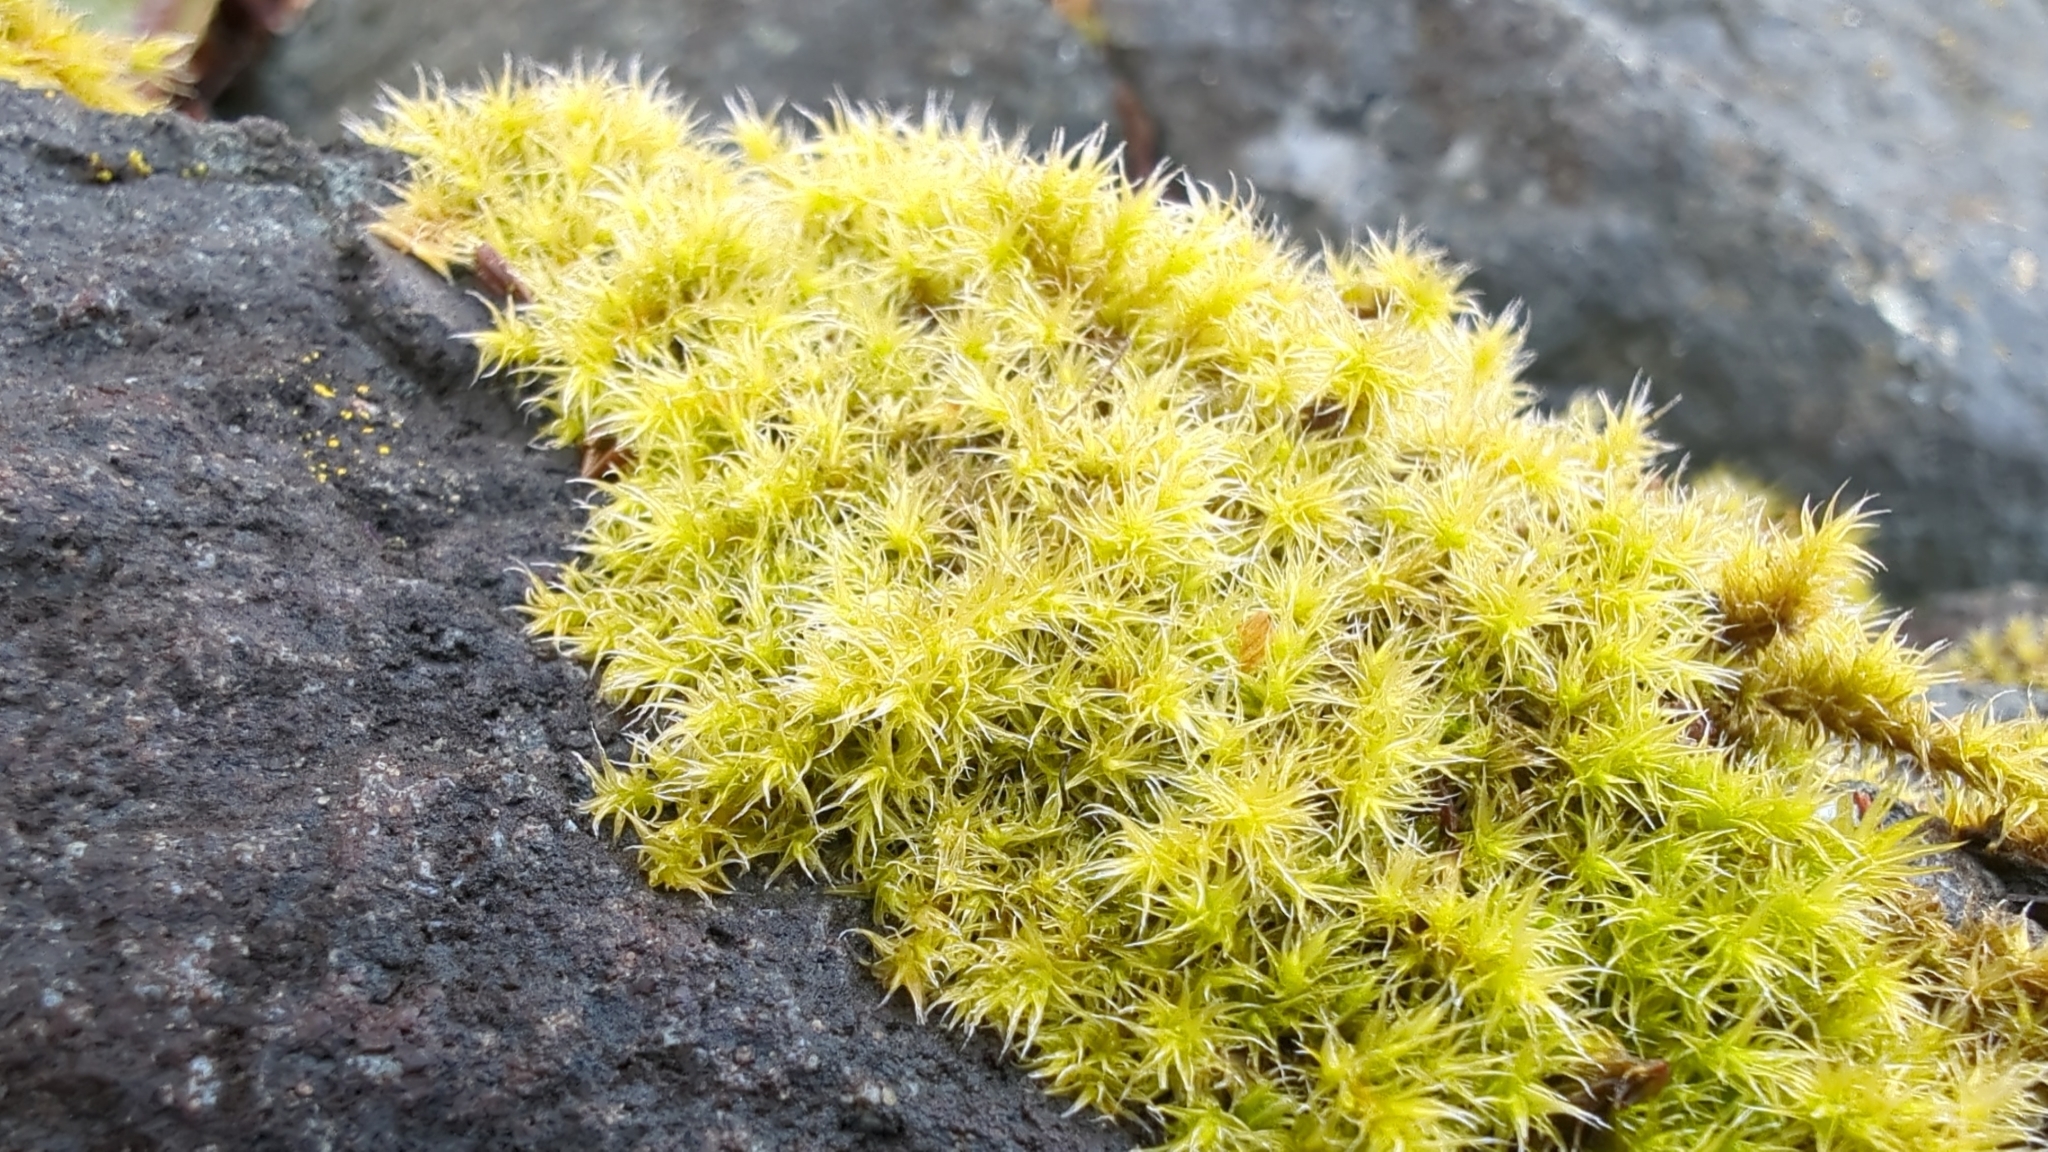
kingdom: Plantae
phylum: Bryophyta
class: Bryopsida
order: Grimmiales
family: Grimmiaceae
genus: Niphotrichum
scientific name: Niphotrichum elongatum
